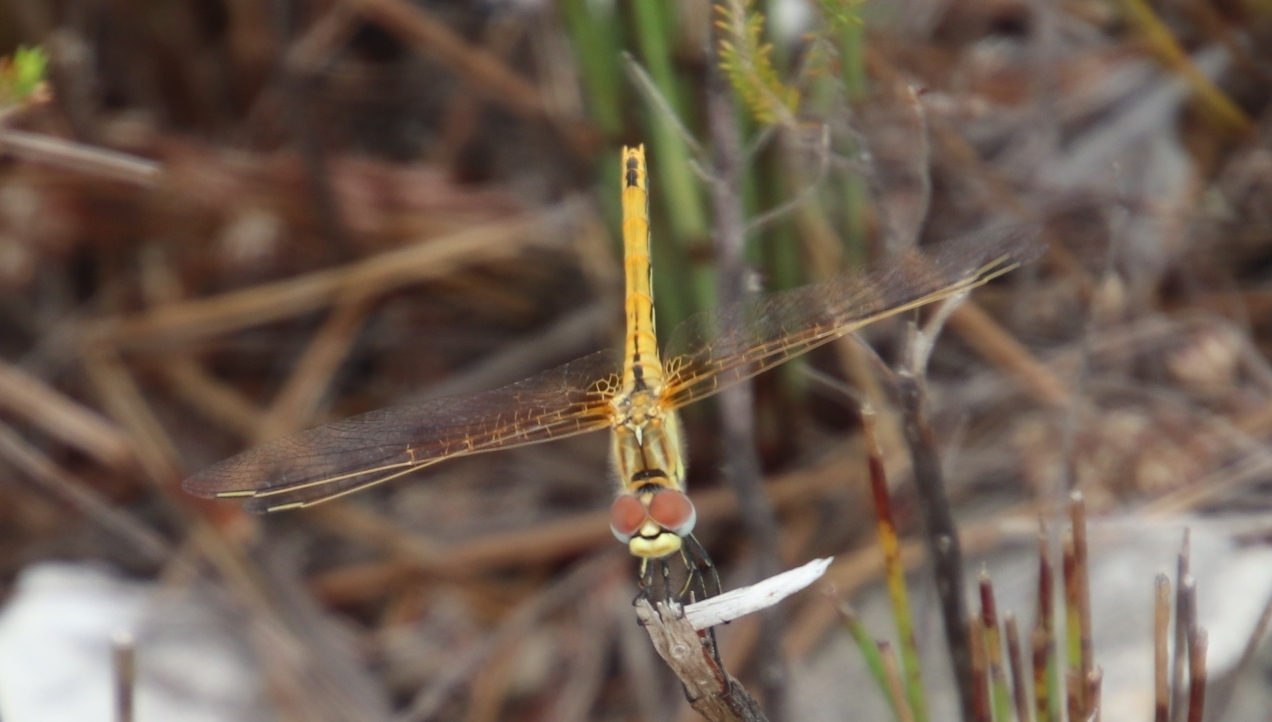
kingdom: Animalia
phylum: Arthropoda
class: Insecta
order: Odonata
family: Libellulidae
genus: Sympetrum
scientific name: Sympetrum fonscolombii
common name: Red-veined darter
